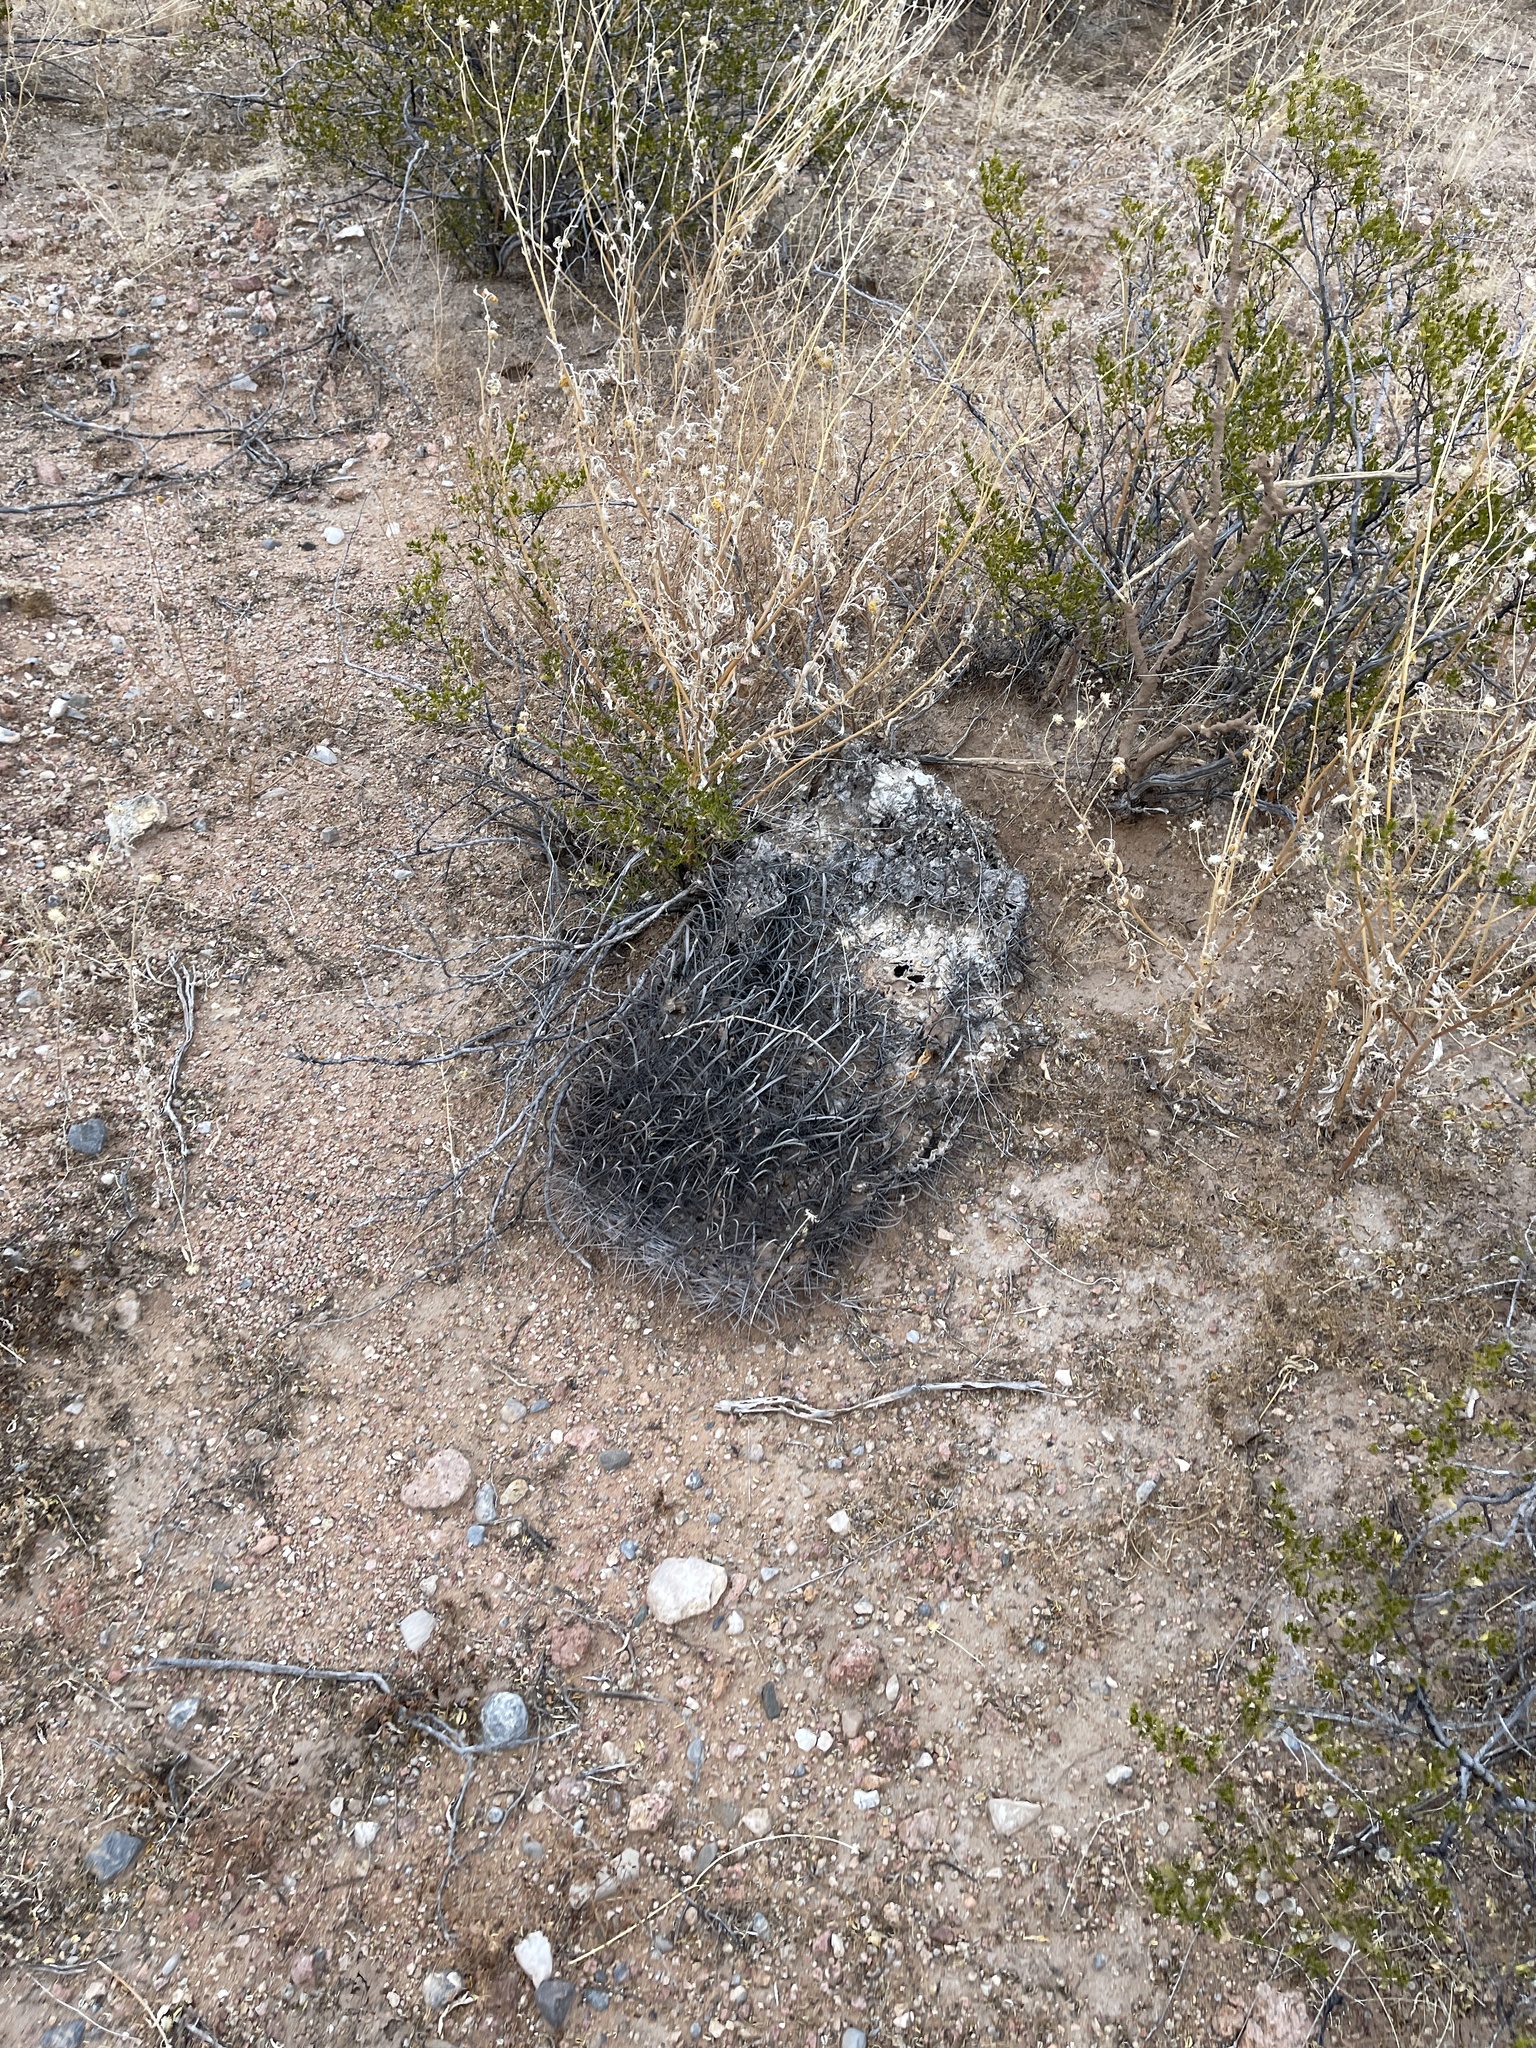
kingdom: Plantae
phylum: Tracheophyta
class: Magnoliopsida
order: Caryophyllales
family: Cactaceae
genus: Ferocactus
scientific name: Ferocactus wislizeni
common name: Candy barrel cactus
